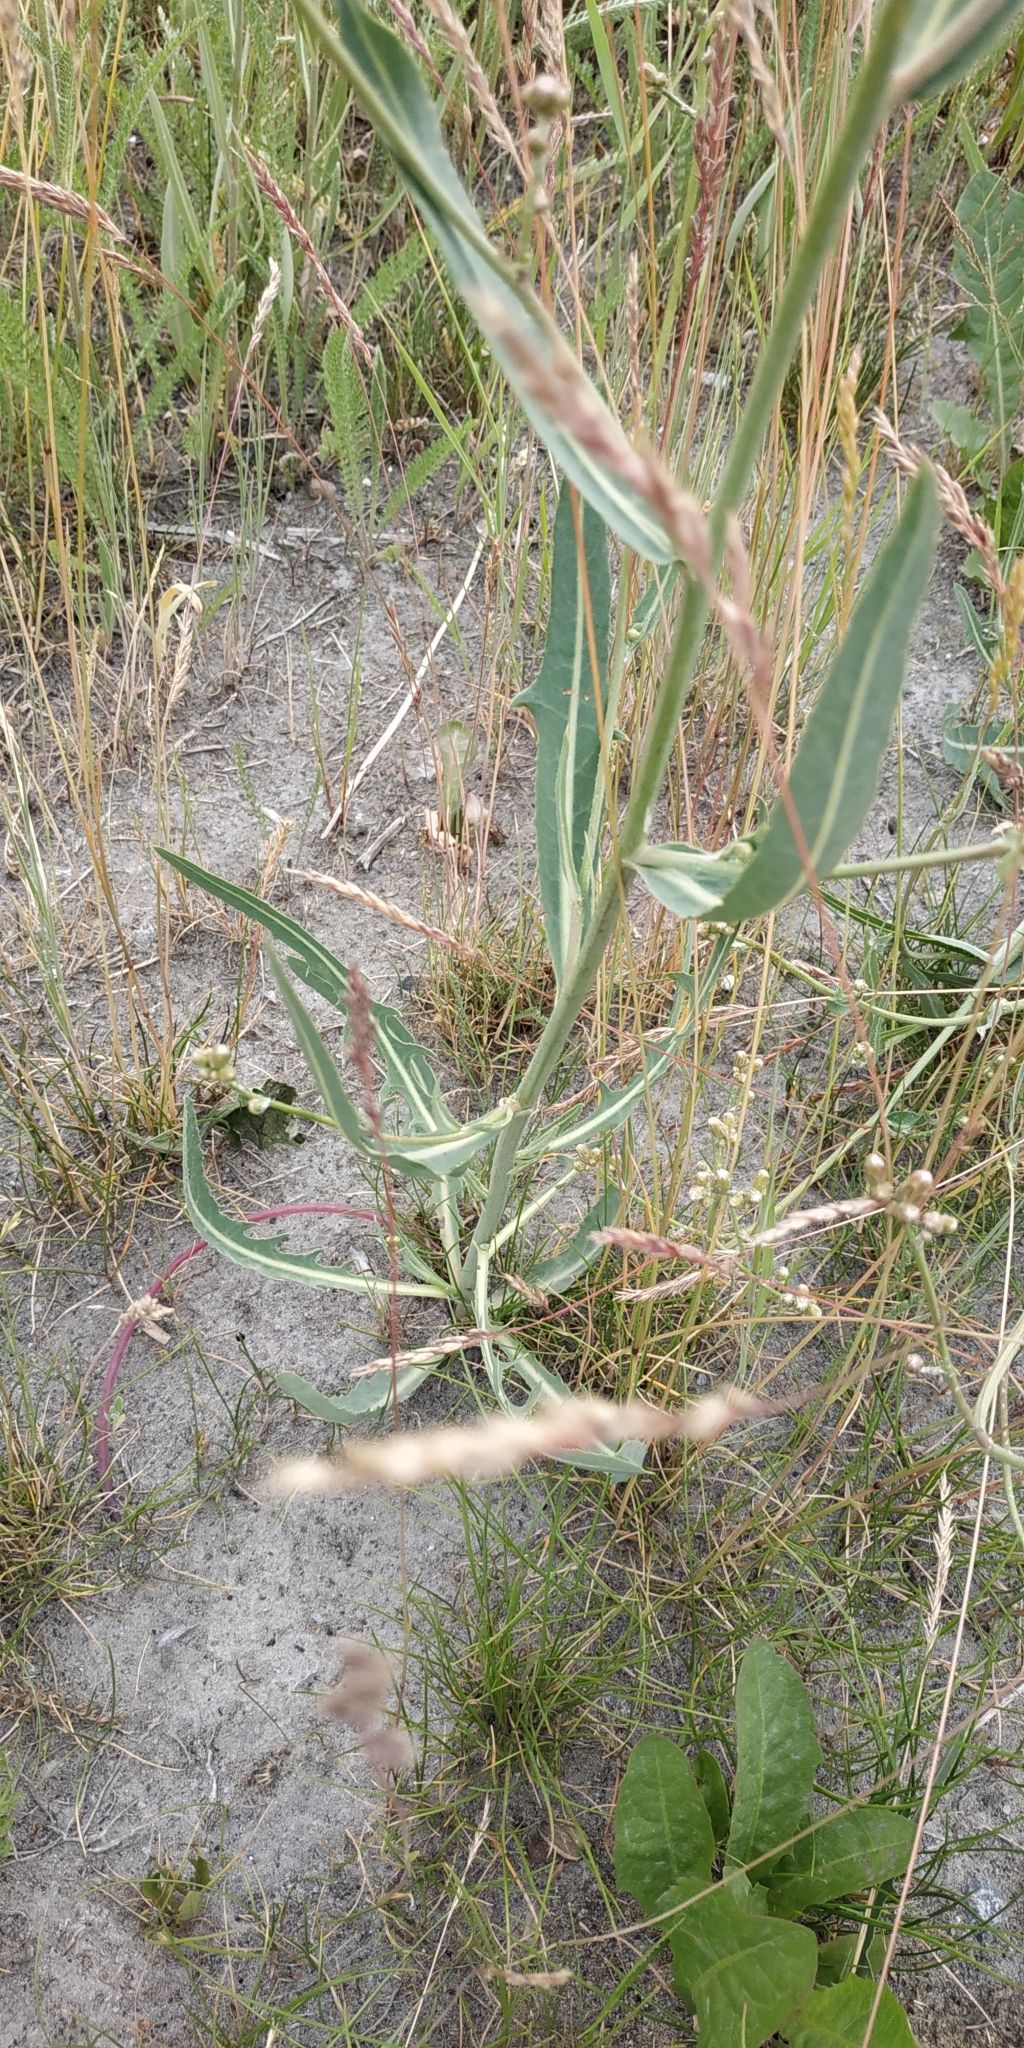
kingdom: Plantae
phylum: Tracheophyta
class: Magnoliopsida
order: Asterales
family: Asteraceae
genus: Lactuca
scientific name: Lactuca tatarica
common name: Blue lettuce
